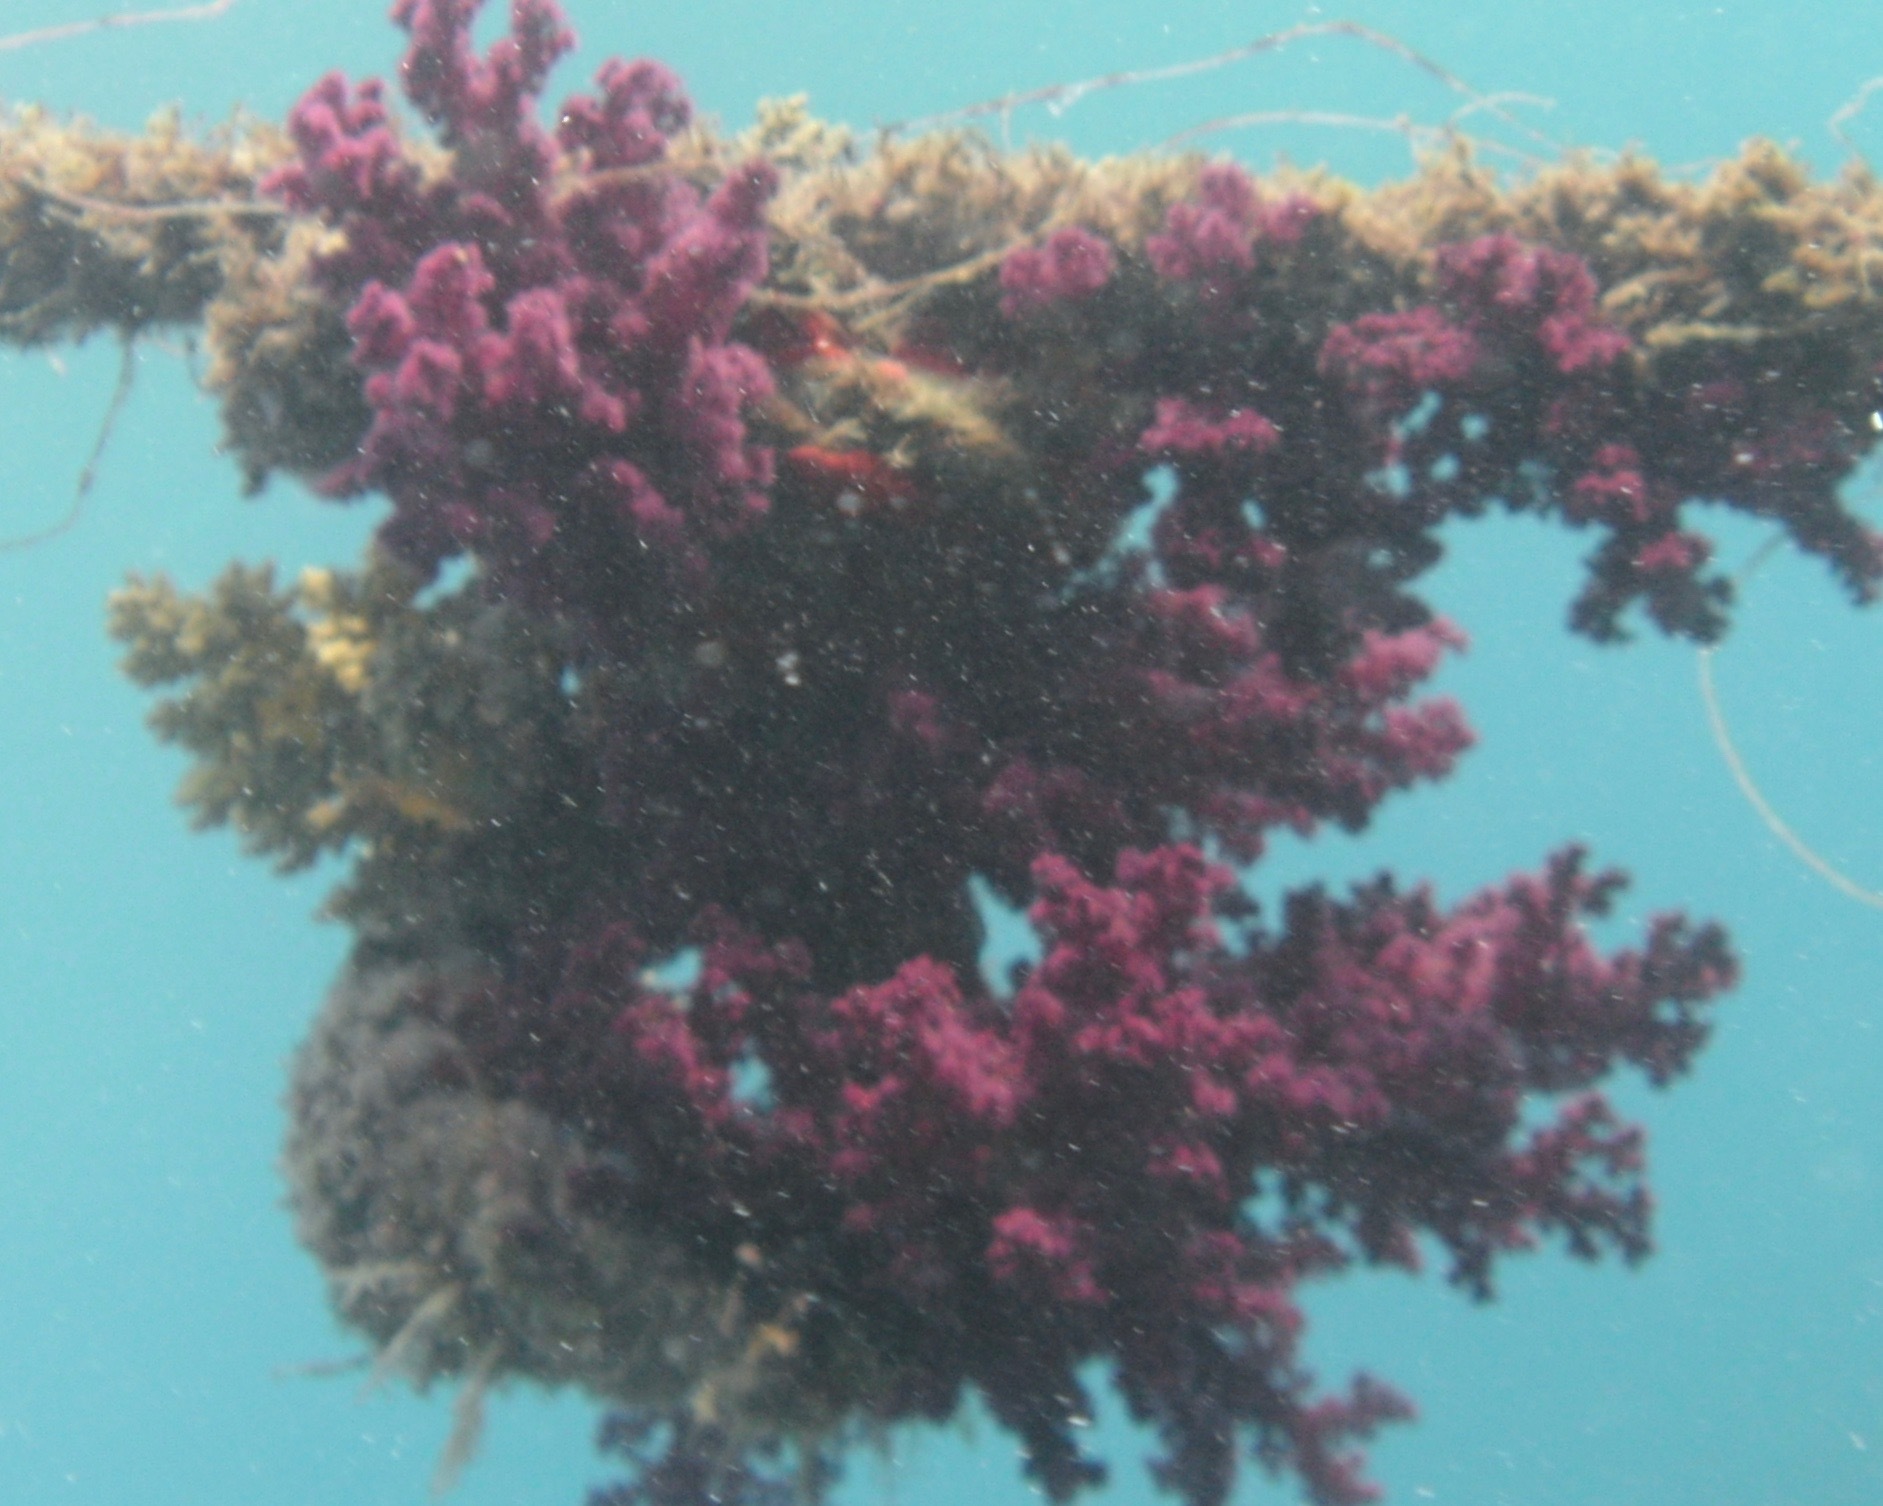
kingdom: Animalia
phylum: Cnidaria
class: Anthozoa
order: Malacalcyonacea
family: Nephtheidae
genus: Dendronephthya
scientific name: Dendronephthya hemprichi
